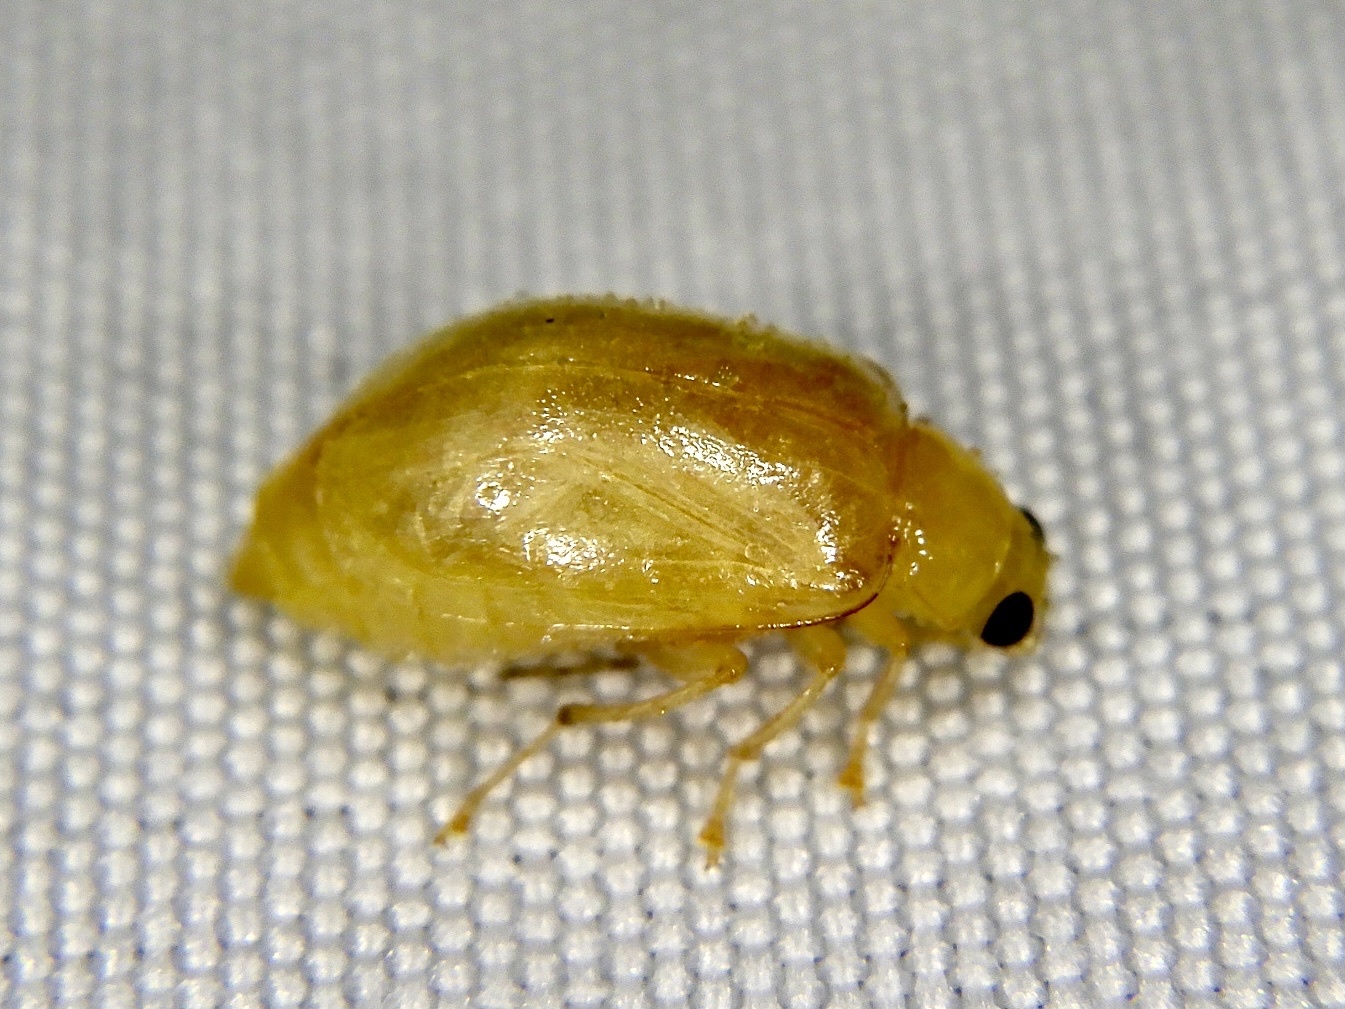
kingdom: Animalia
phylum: Arthropoda
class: Insecta
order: Coleoptera
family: Chrysomelidae
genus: Monolepta
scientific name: Monolepta pallidula
